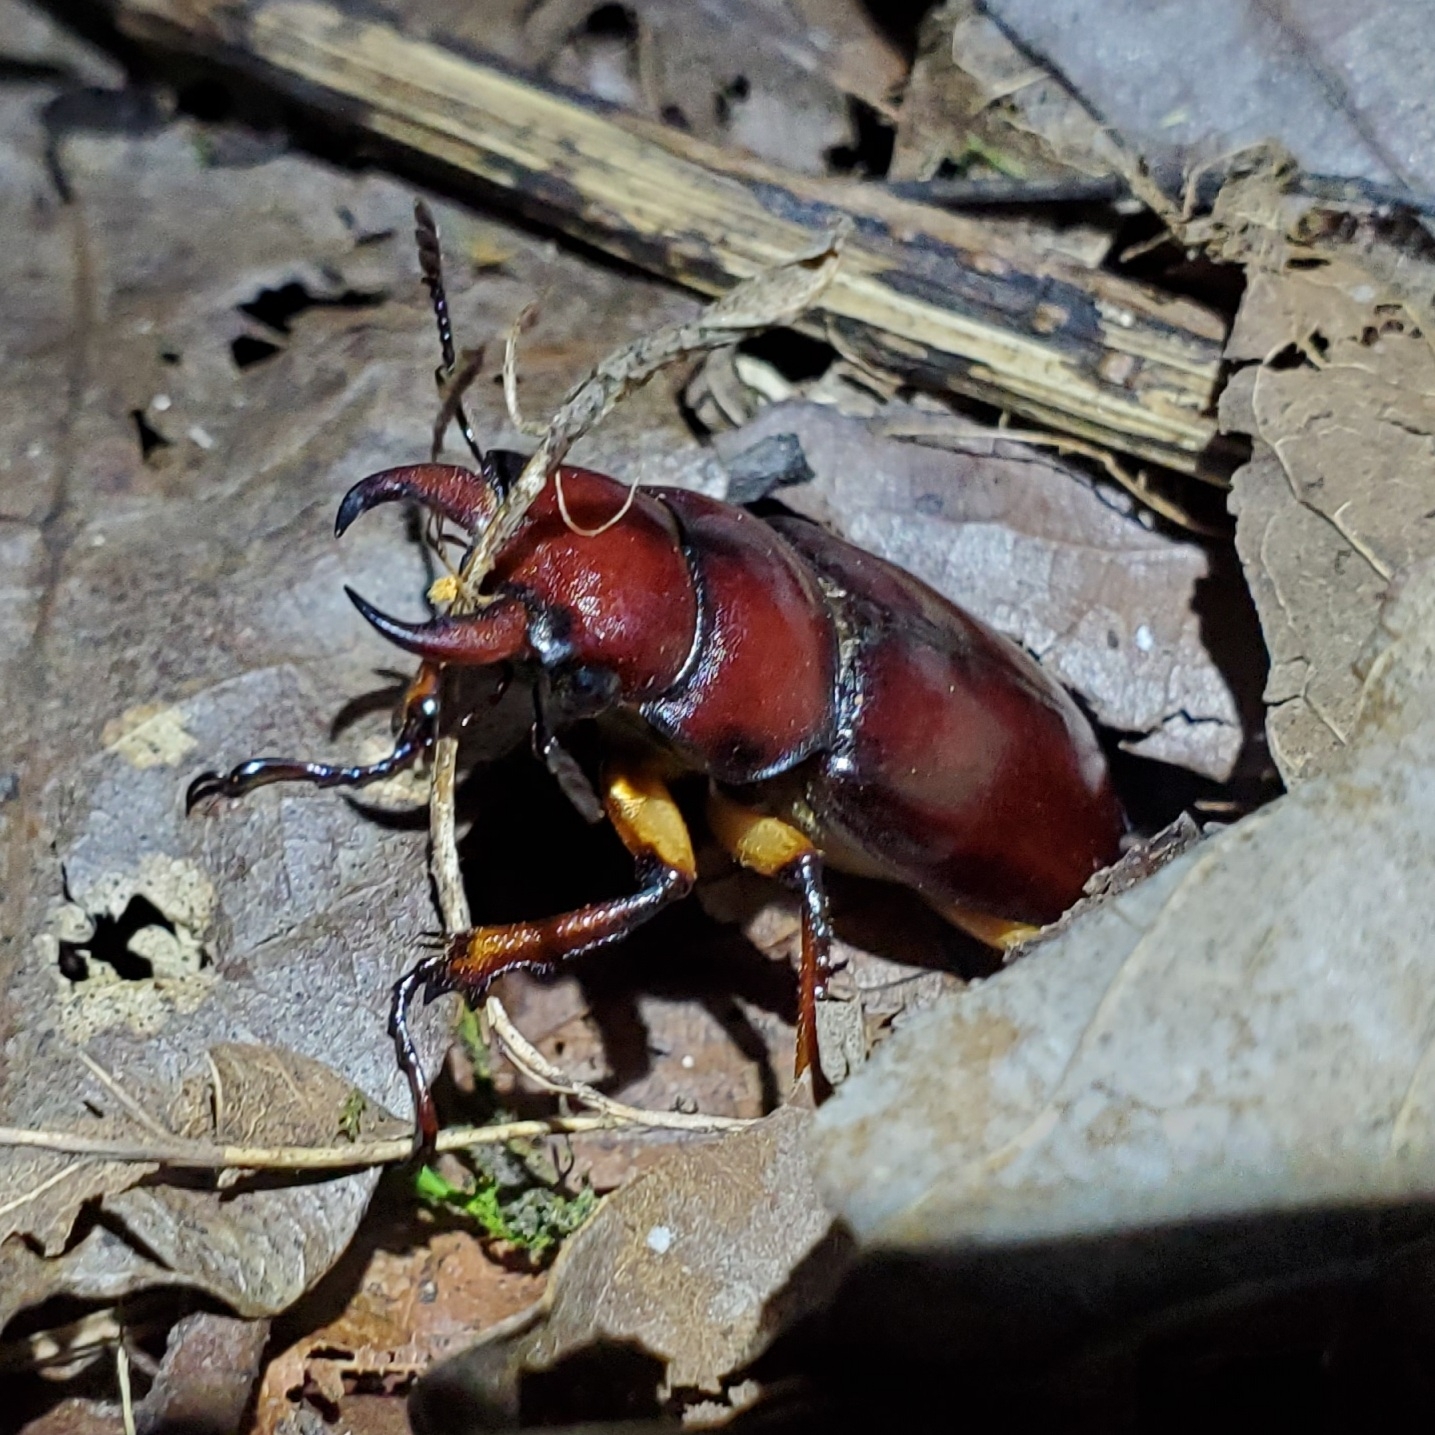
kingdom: Animalia
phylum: Arthropoda
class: Insecta
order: Coleoptera
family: Lucanidae
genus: Lucanus
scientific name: Lucanus capreolus
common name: Stag beetle
